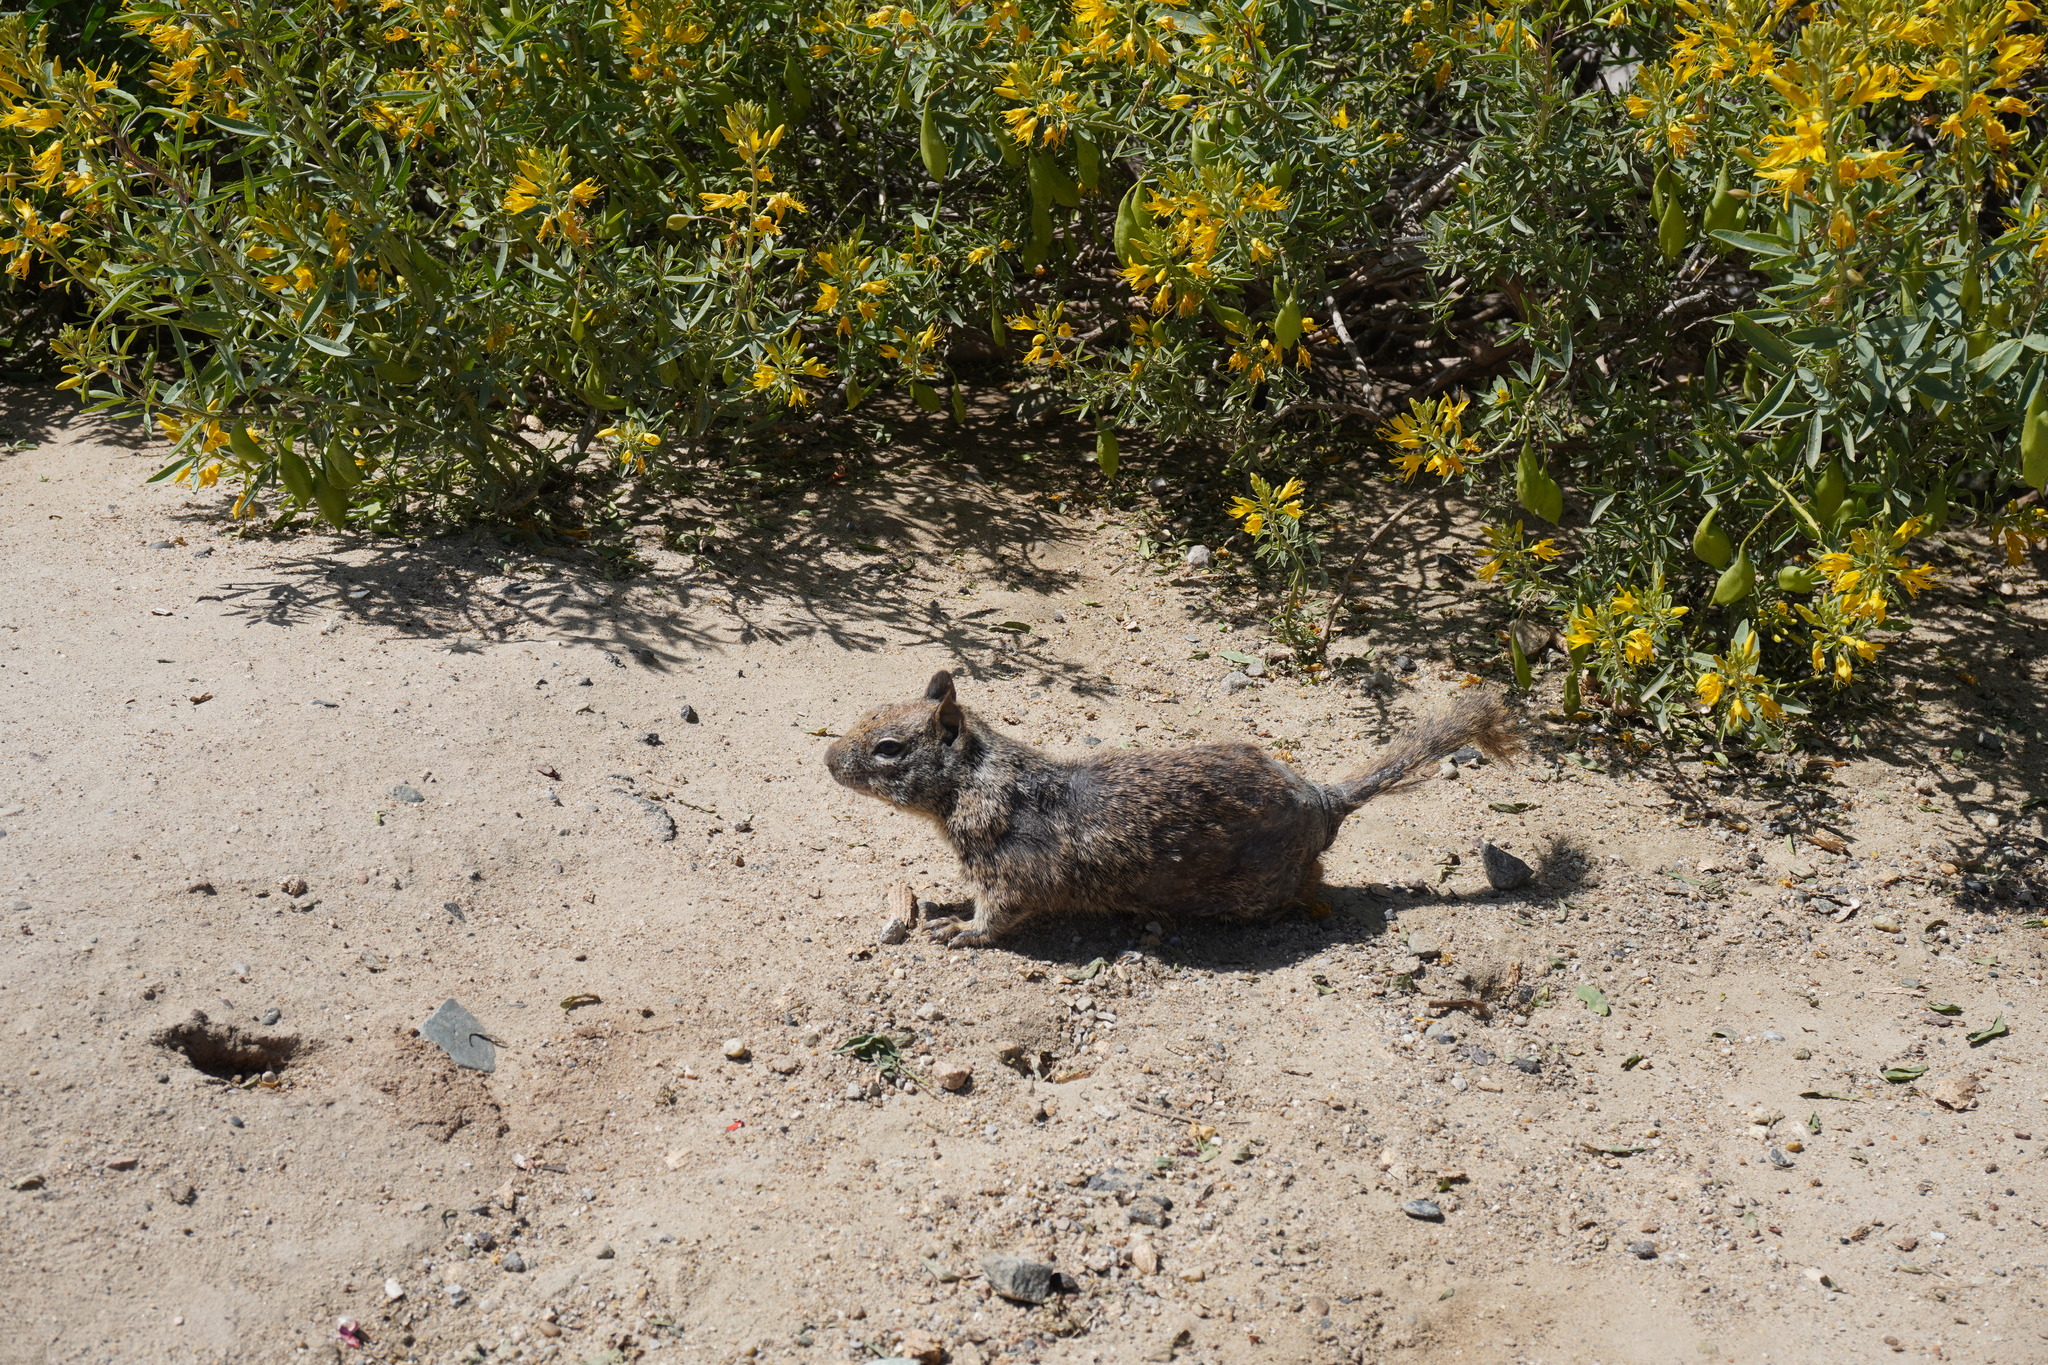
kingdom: Animalia
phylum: Chordata
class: Mammalia
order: Rodentia
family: Sciuridae
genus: Otospermophilus
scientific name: Otospermophilus beecheyi
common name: California ground squirrel
